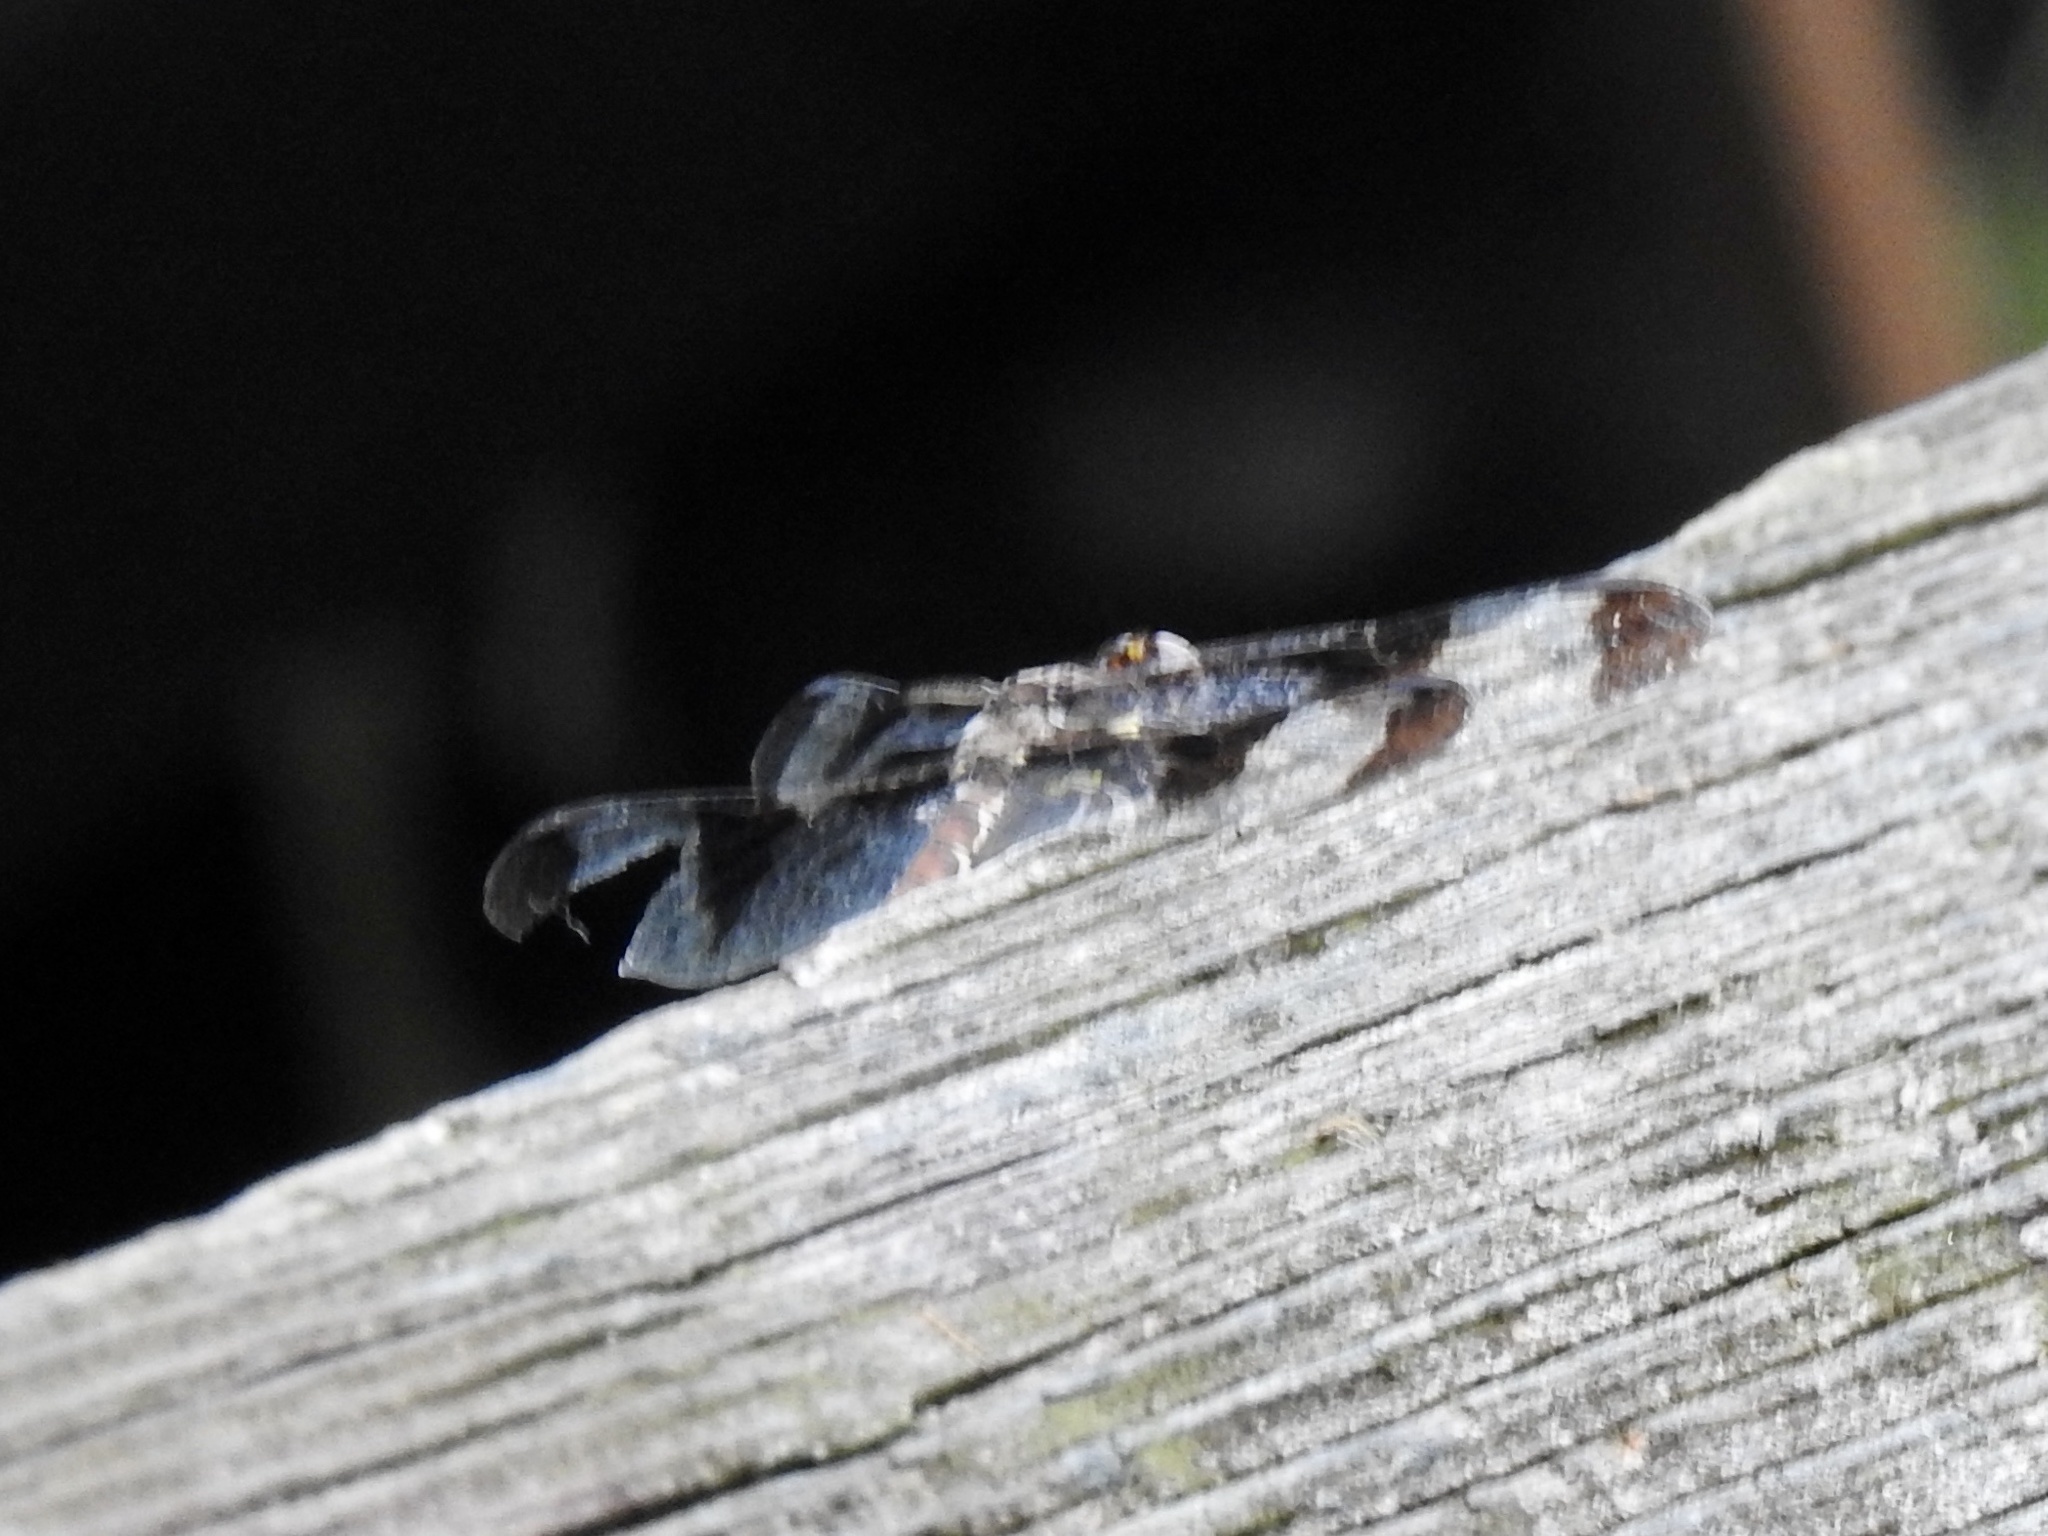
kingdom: Animalia
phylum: Arthropoda
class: Insecta
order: Odonata
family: Libellulidae
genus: Plathemis
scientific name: Plathemis lydia
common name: Common whitetail
